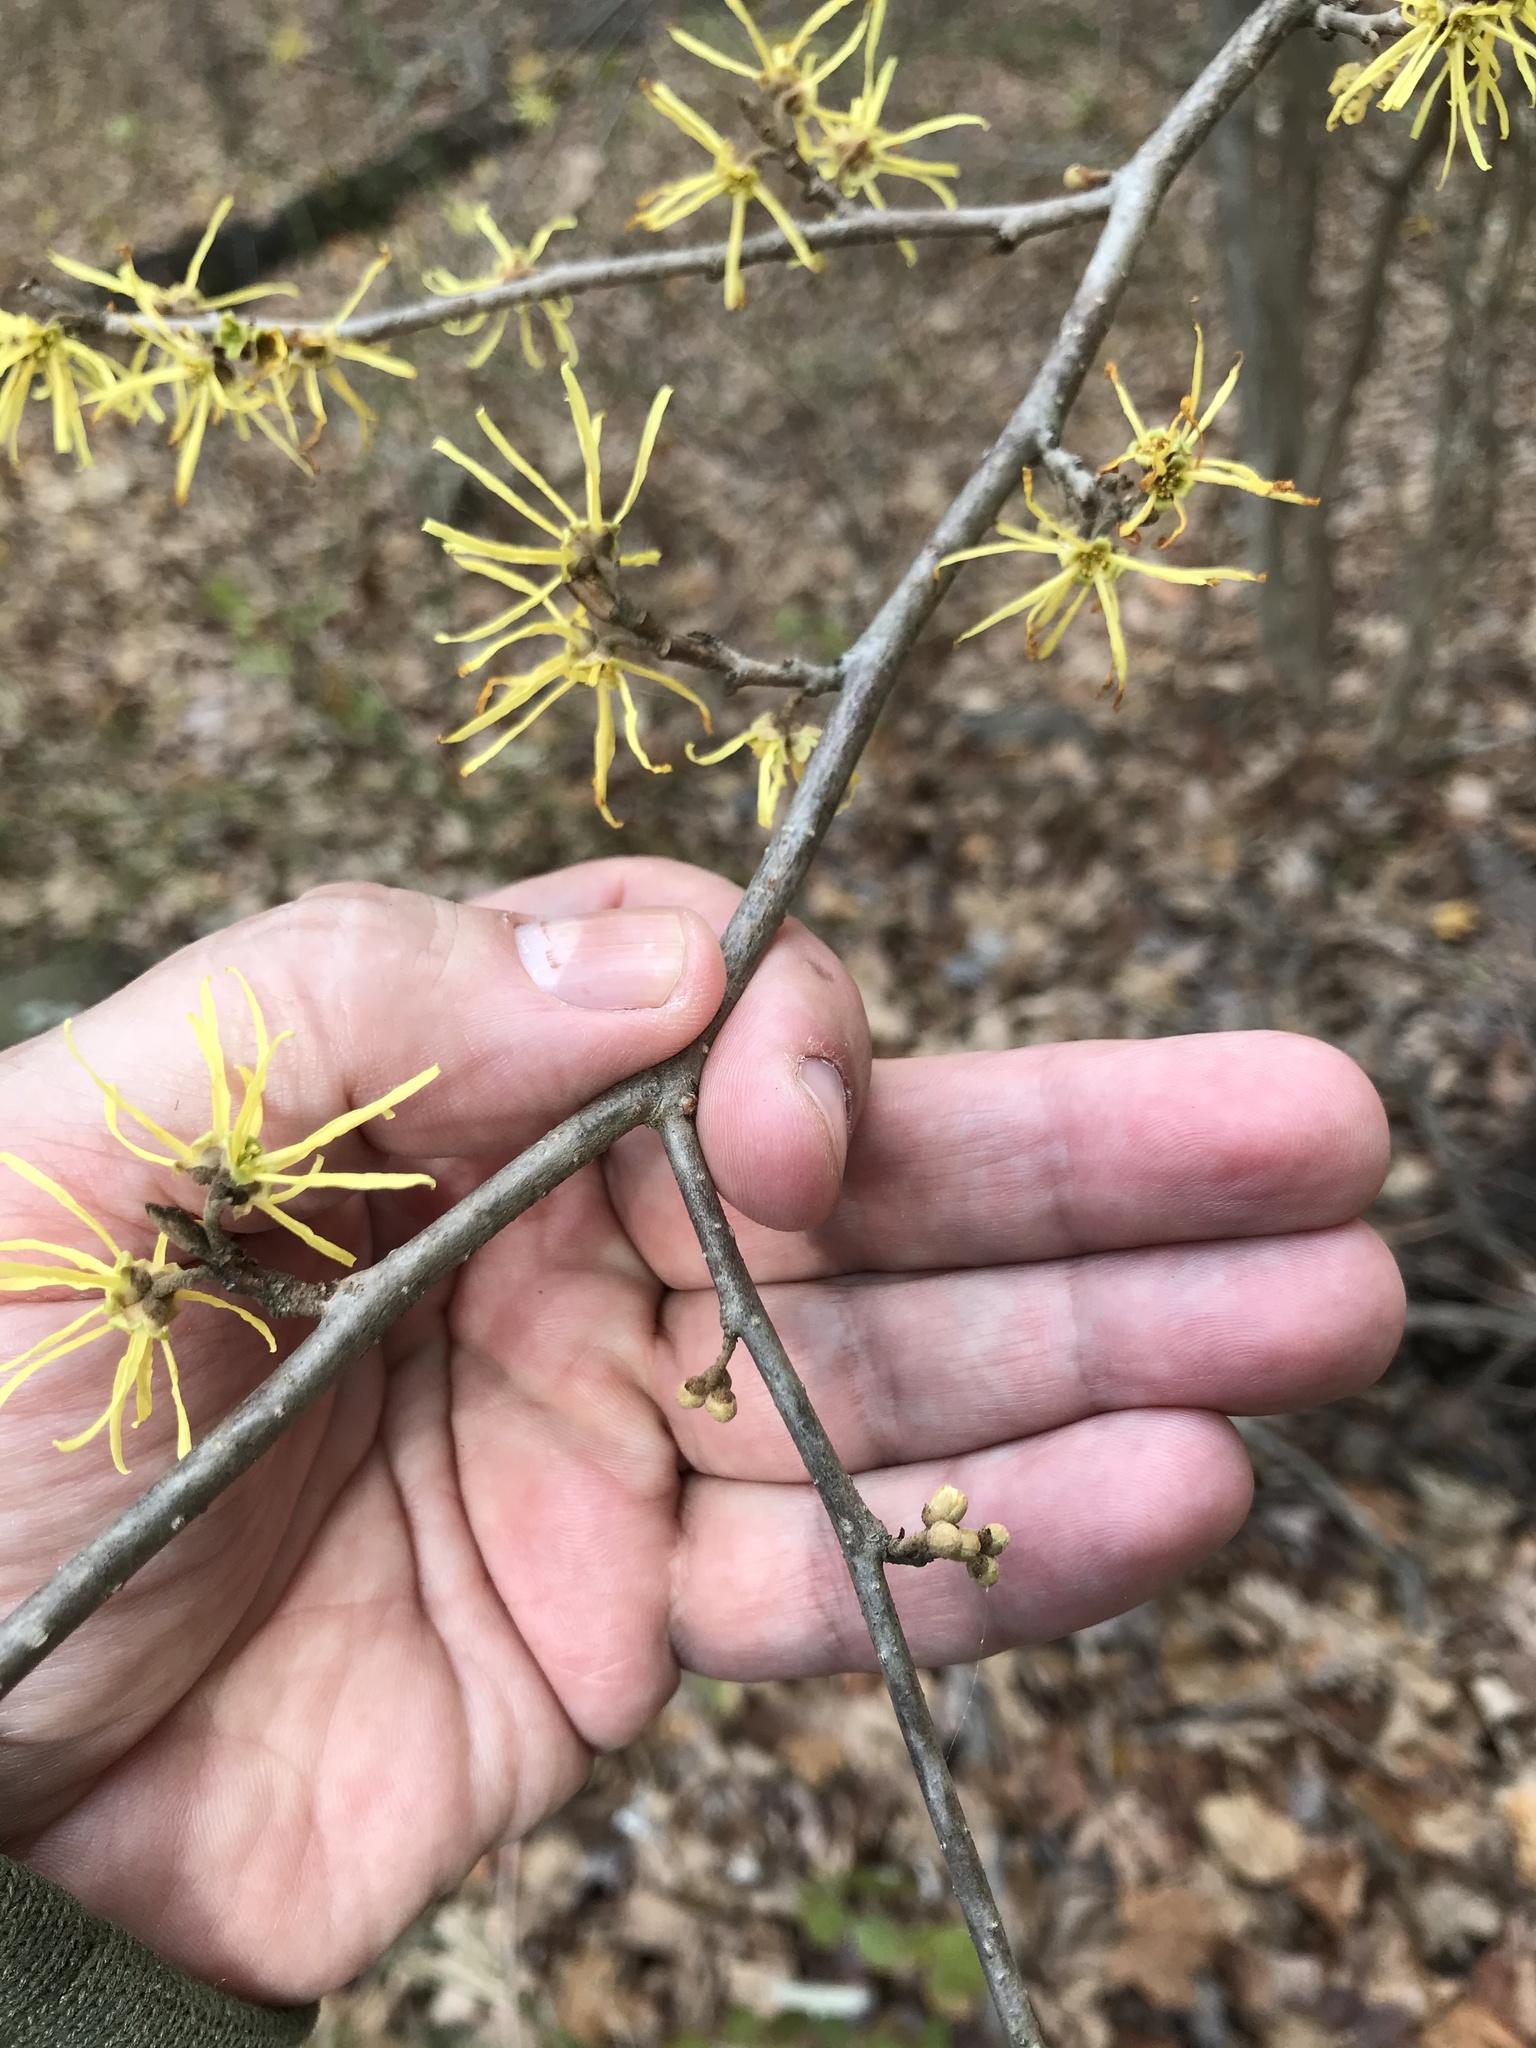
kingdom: Plantae
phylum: Tracheophyta
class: Magnoliopsida
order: Saxifragales
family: Hamamelidaceae
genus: Hamamelis
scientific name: Hamamelis virginiana
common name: Witch-hazel
